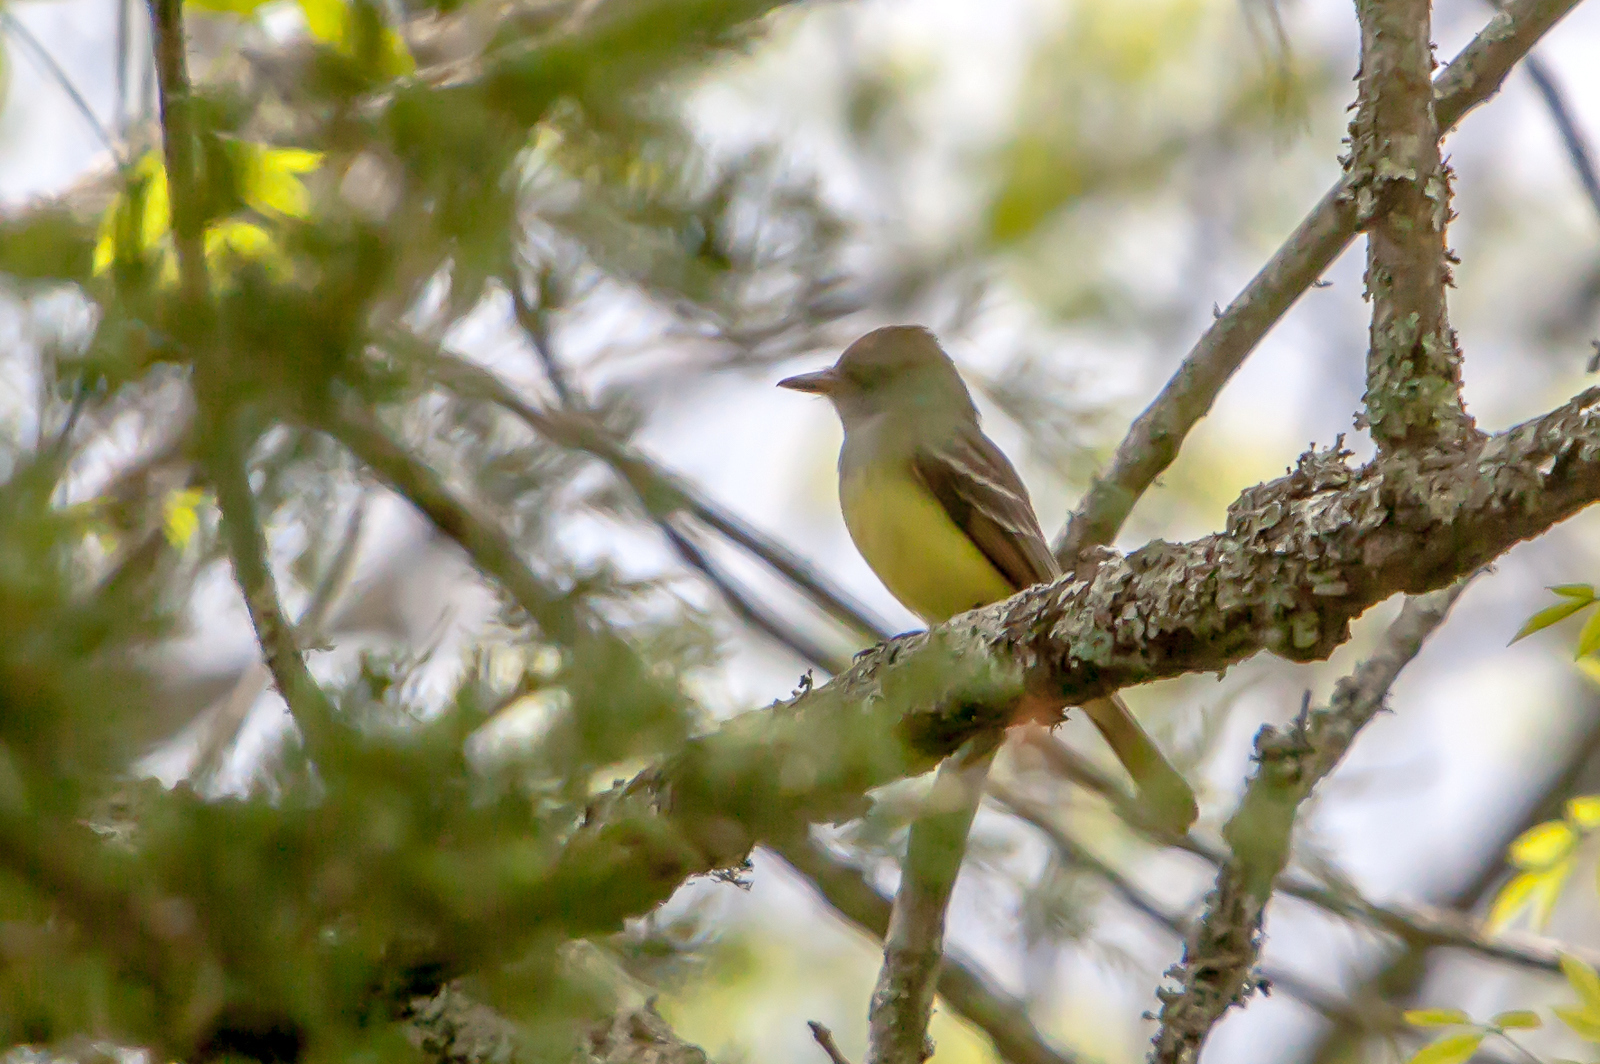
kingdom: Animalia
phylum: Chordata
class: Aves
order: Passeriformes
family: Tyrannidae
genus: Myiarchus
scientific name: Myiarchus crinitus
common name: Great crested flycatcher
